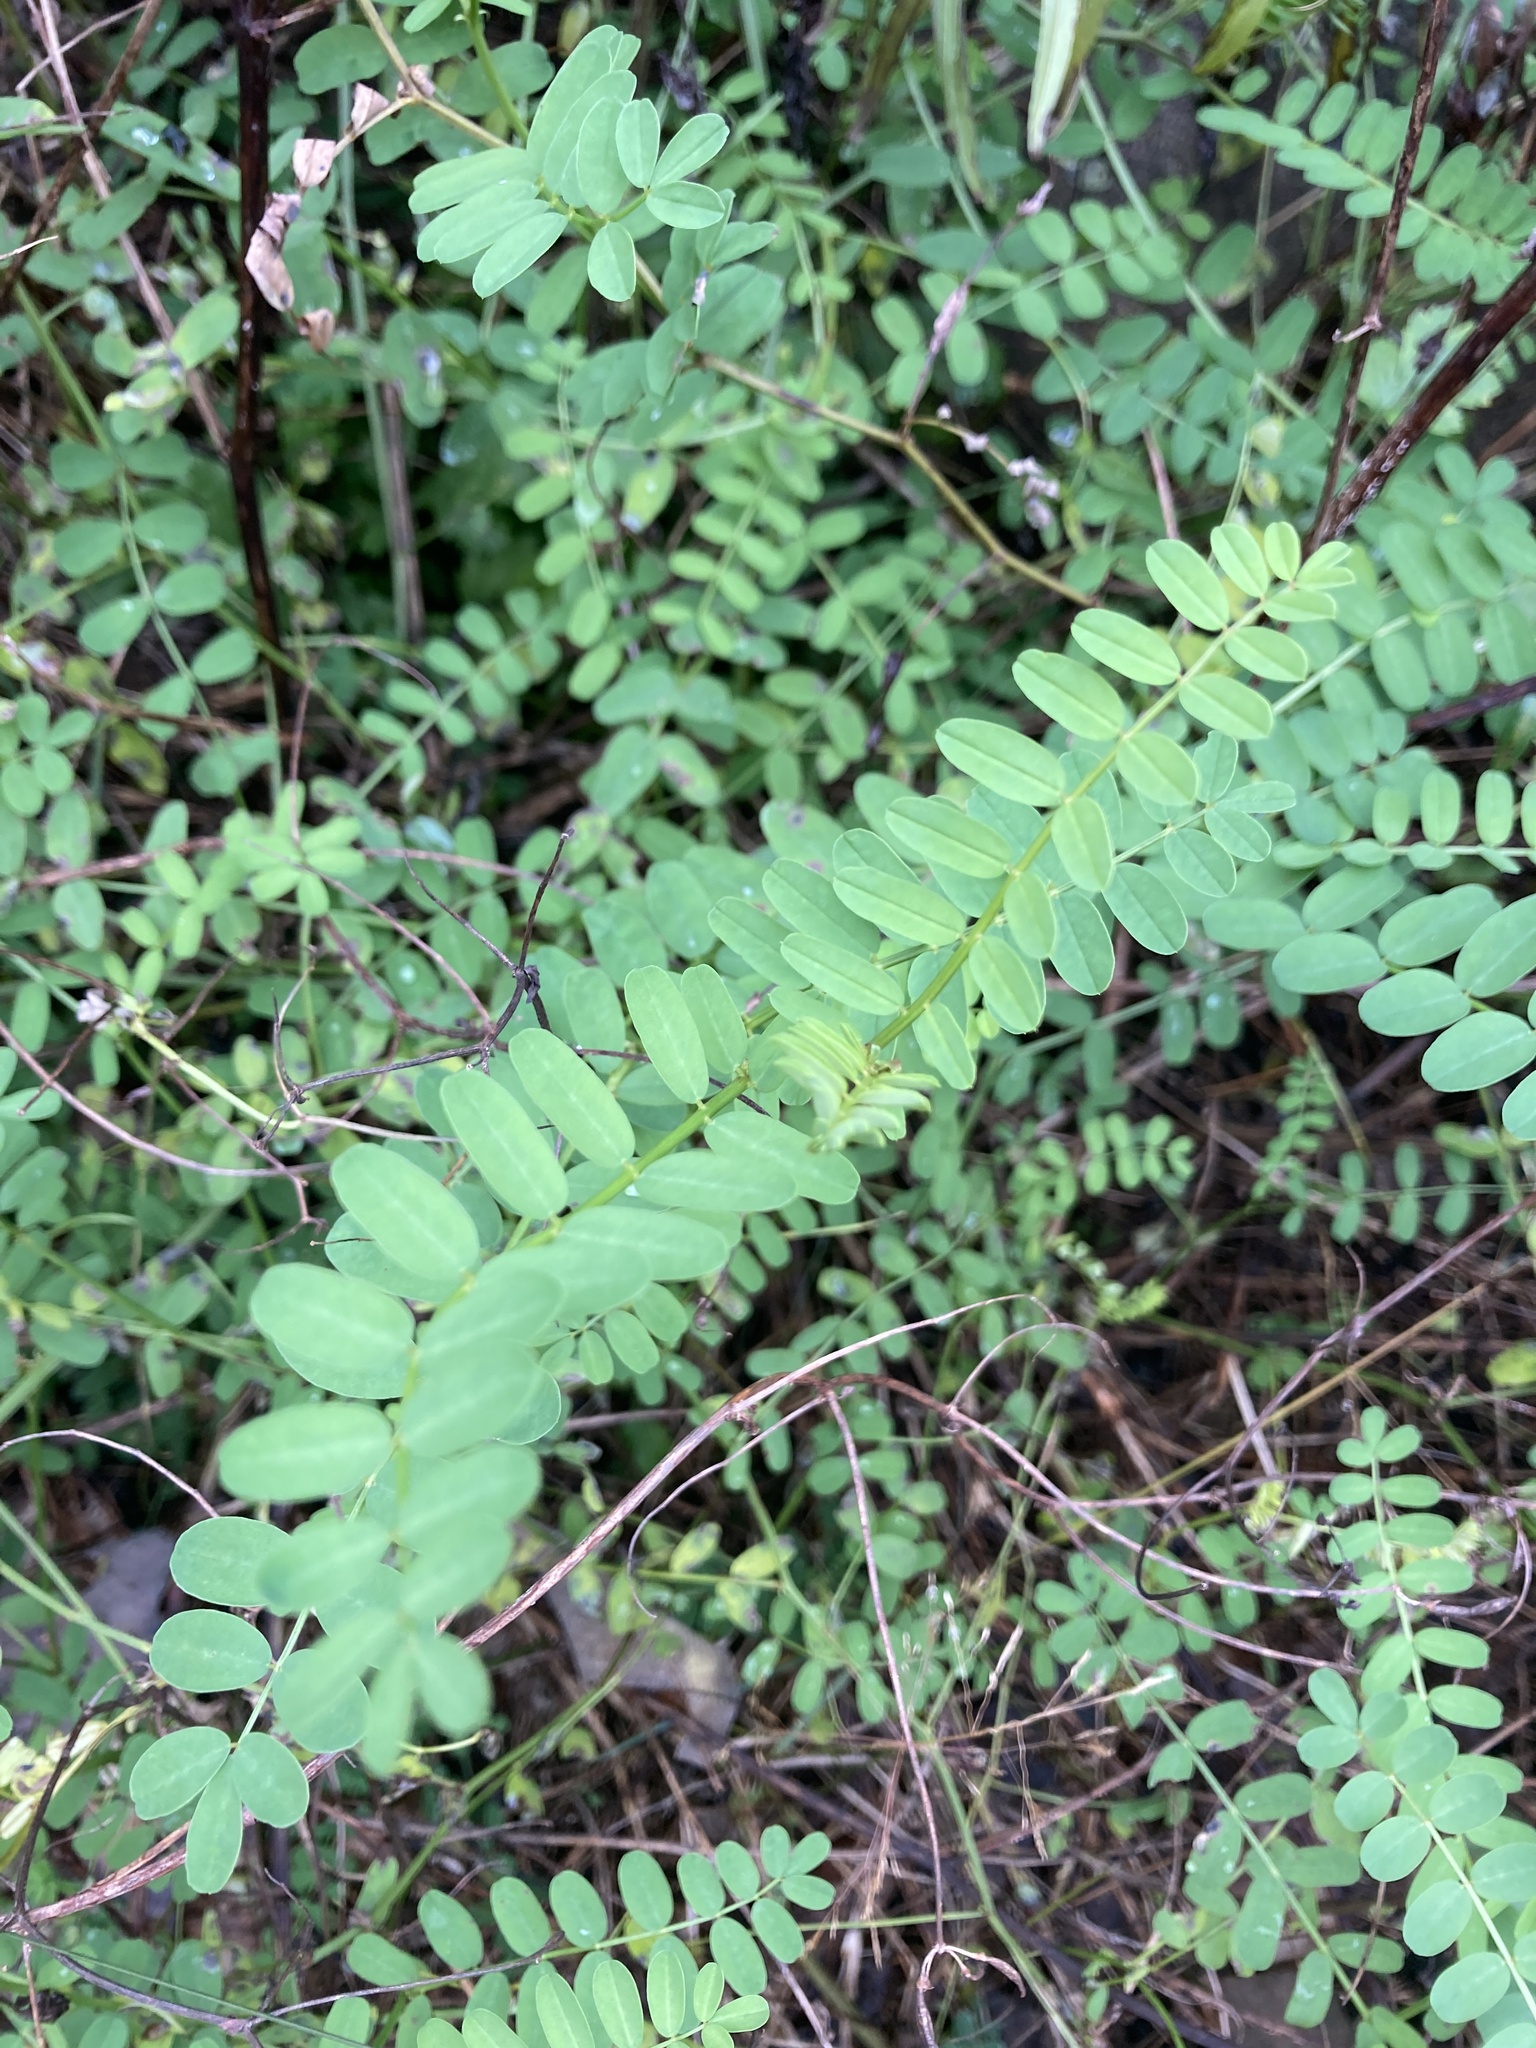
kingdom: Plantae
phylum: Tracheophyta
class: Magnoliopsida
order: Fabales
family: Fabaceae
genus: Coronilla
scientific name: Coronilla varia
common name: Crownvetch
